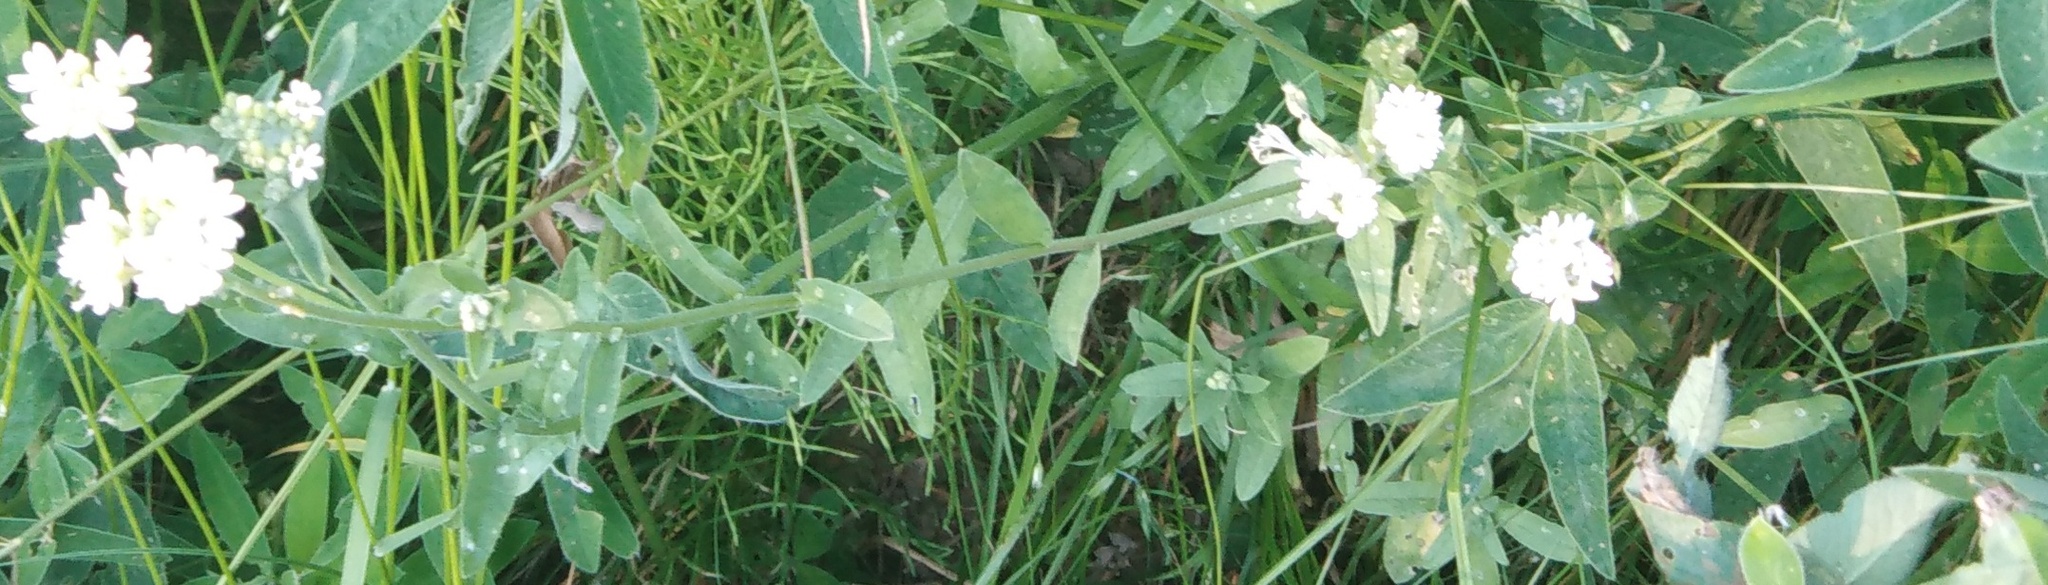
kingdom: Plantae
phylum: Tracheophyta
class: Magnoliopsida
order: Brassicales
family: Brassicaceae
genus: Berteroa
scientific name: Berteroa incana
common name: Hoary alison
